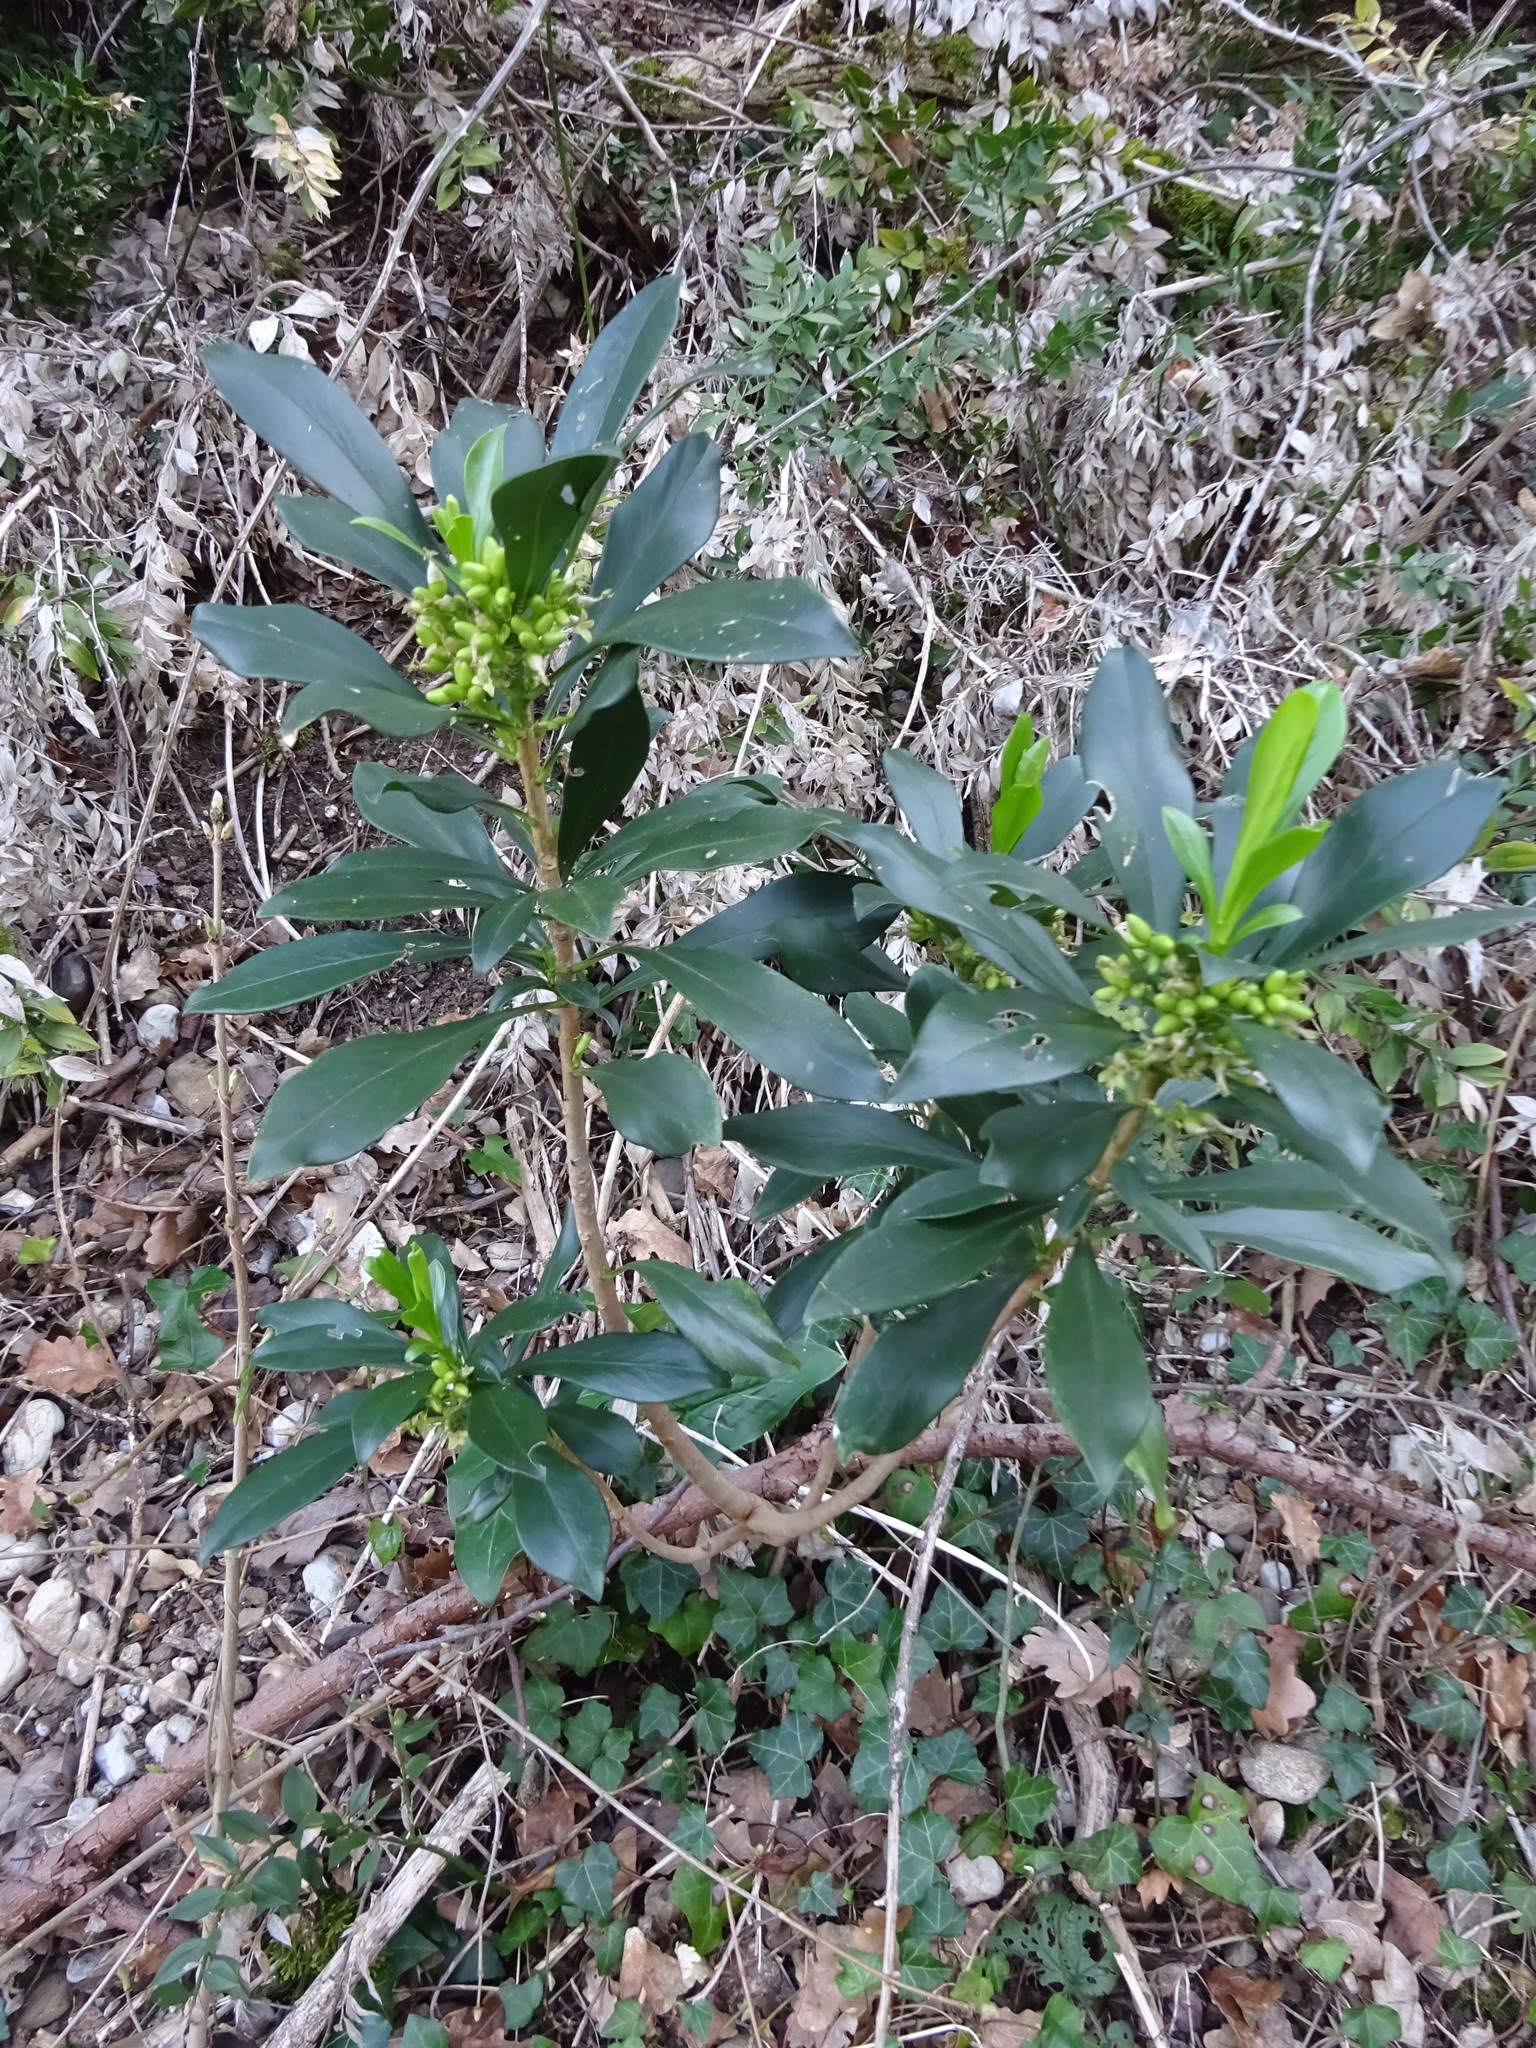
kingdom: Plantae
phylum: Tracheophyta
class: Magnoliopsida
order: Malvales
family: Thymelaeaceae
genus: Daphne
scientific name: Daphne laureola
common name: Spurge-laurel
